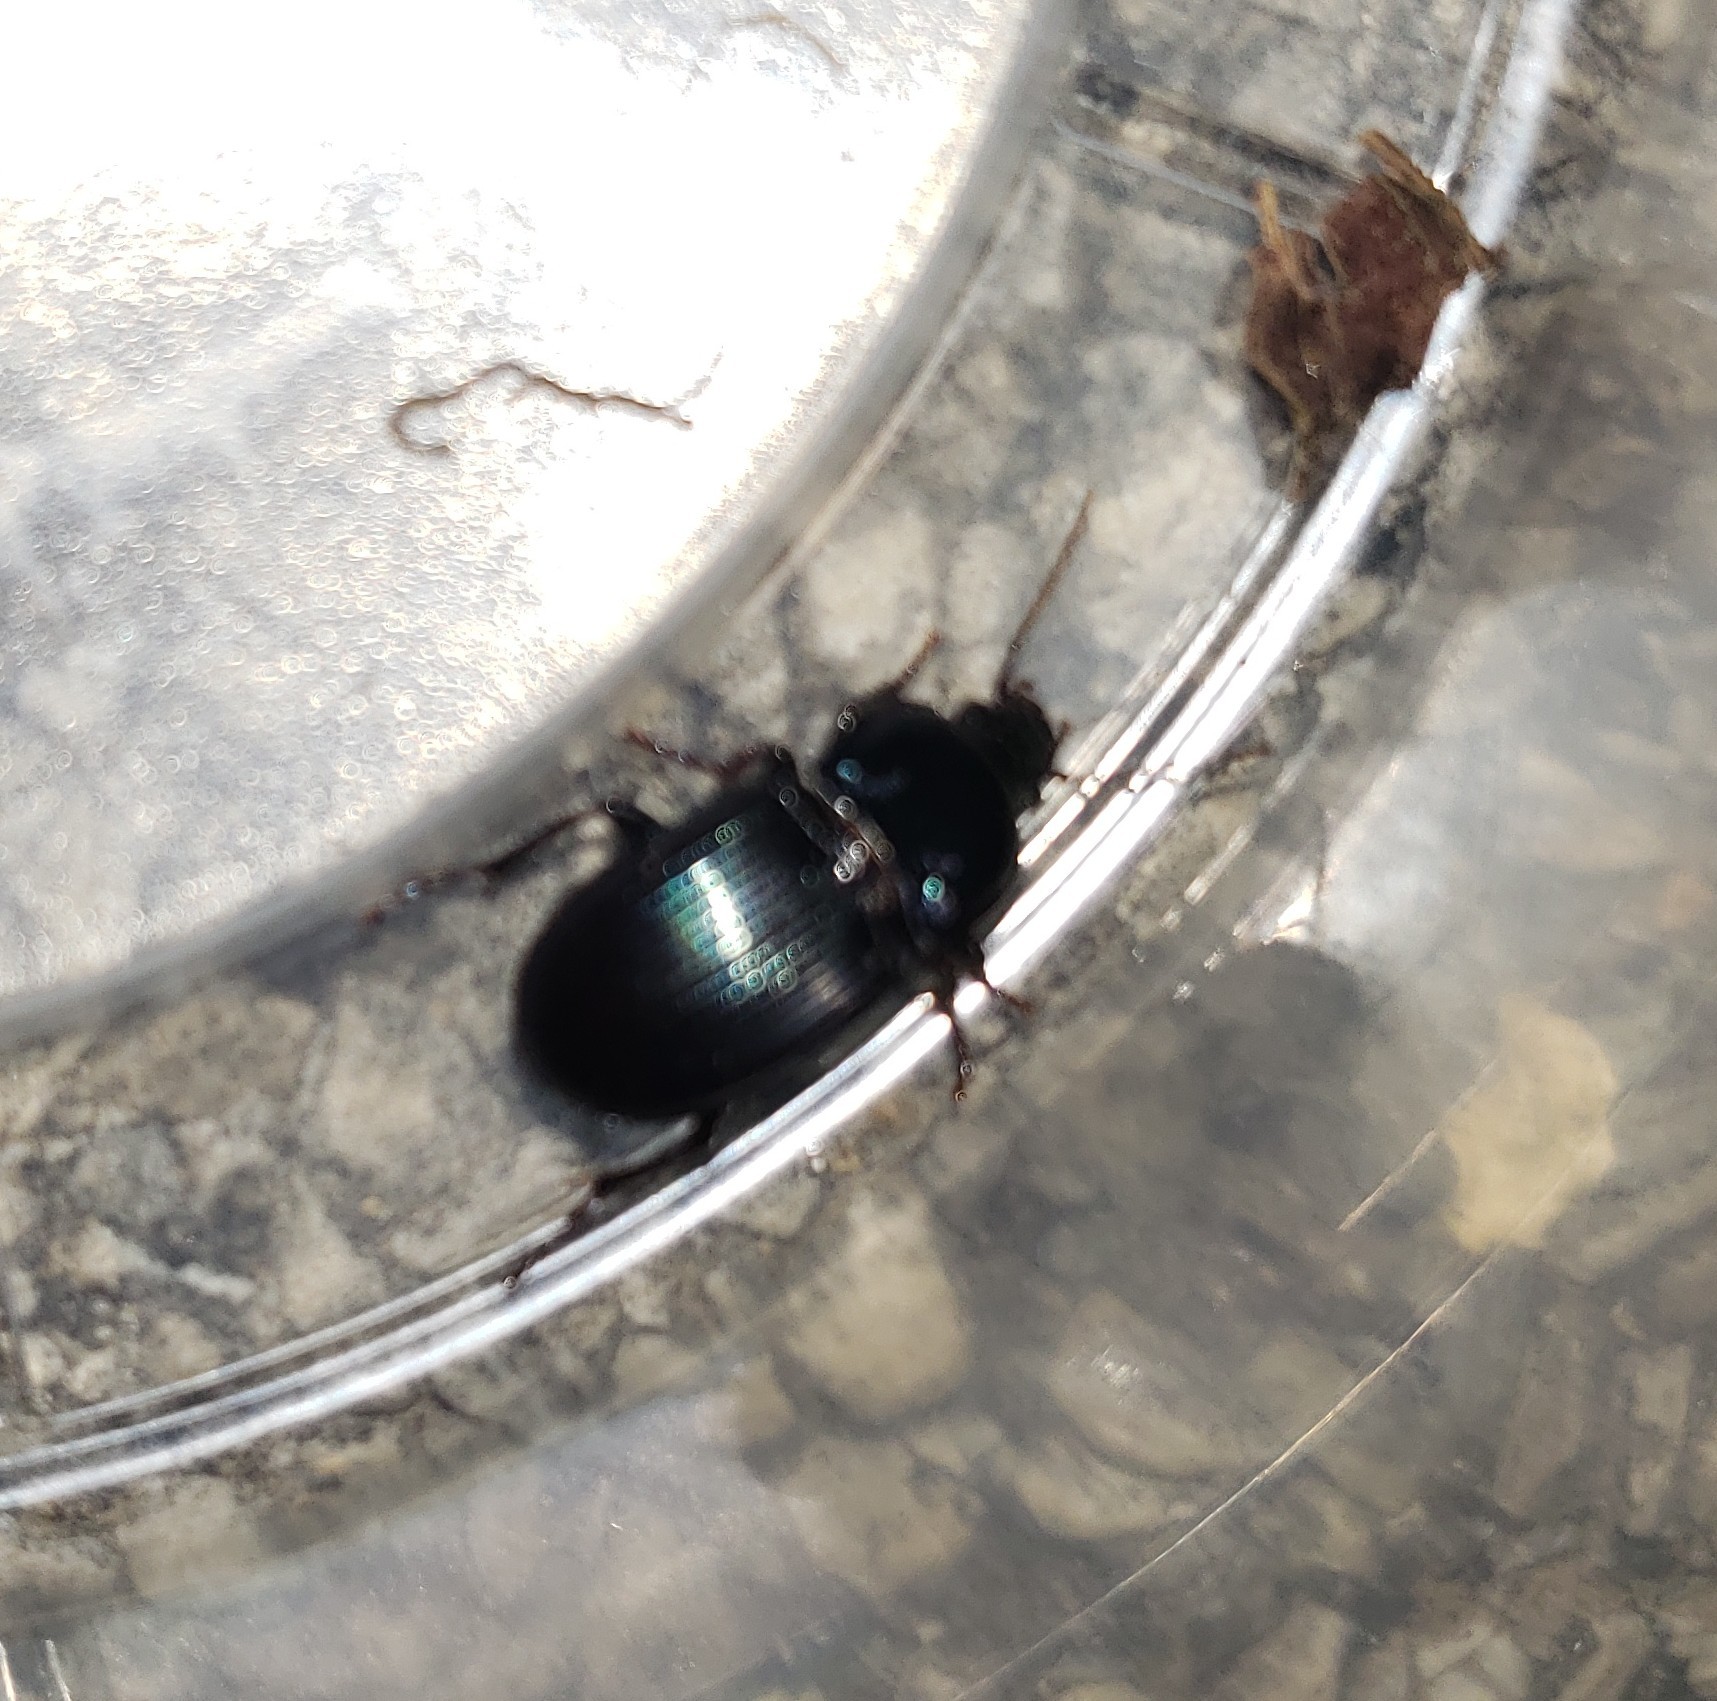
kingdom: Animalia
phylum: Arthropoda
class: Insecta
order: Coleoptera
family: Carabidae
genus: Myas
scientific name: Myas coracinus
